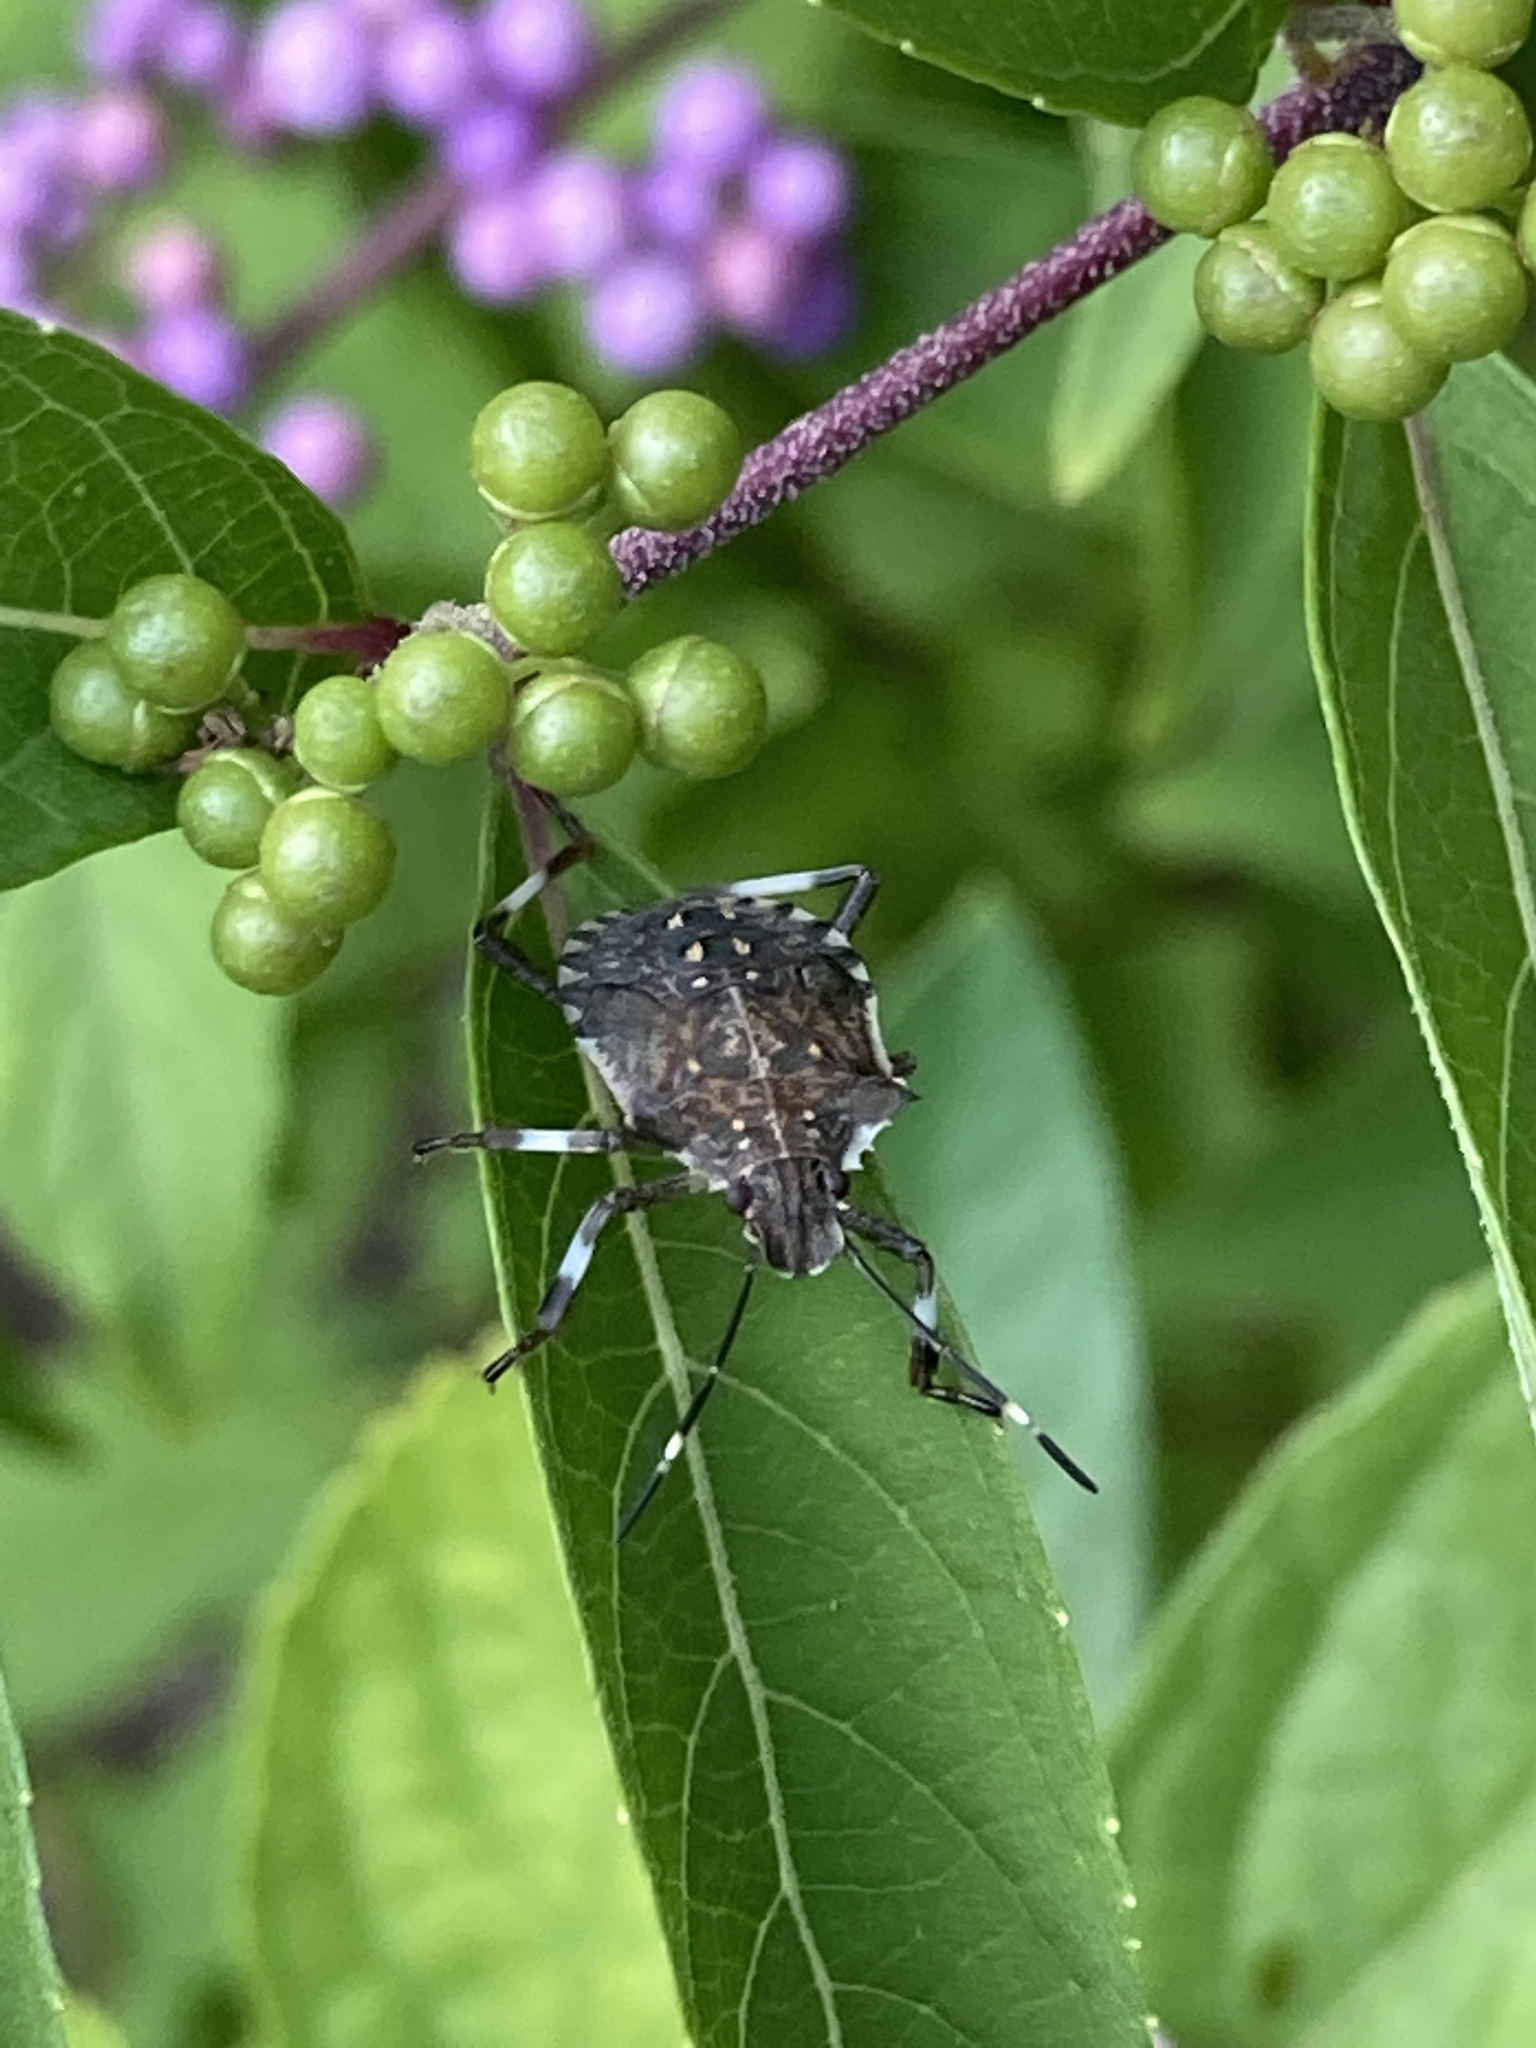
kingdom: Animalia
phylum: Arthropoda
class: Insecta
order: Hemiptera
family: Pentatomidae
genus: Halyomorpha
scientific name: Halyomorpha halys
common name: Brown marmorated stink bug
